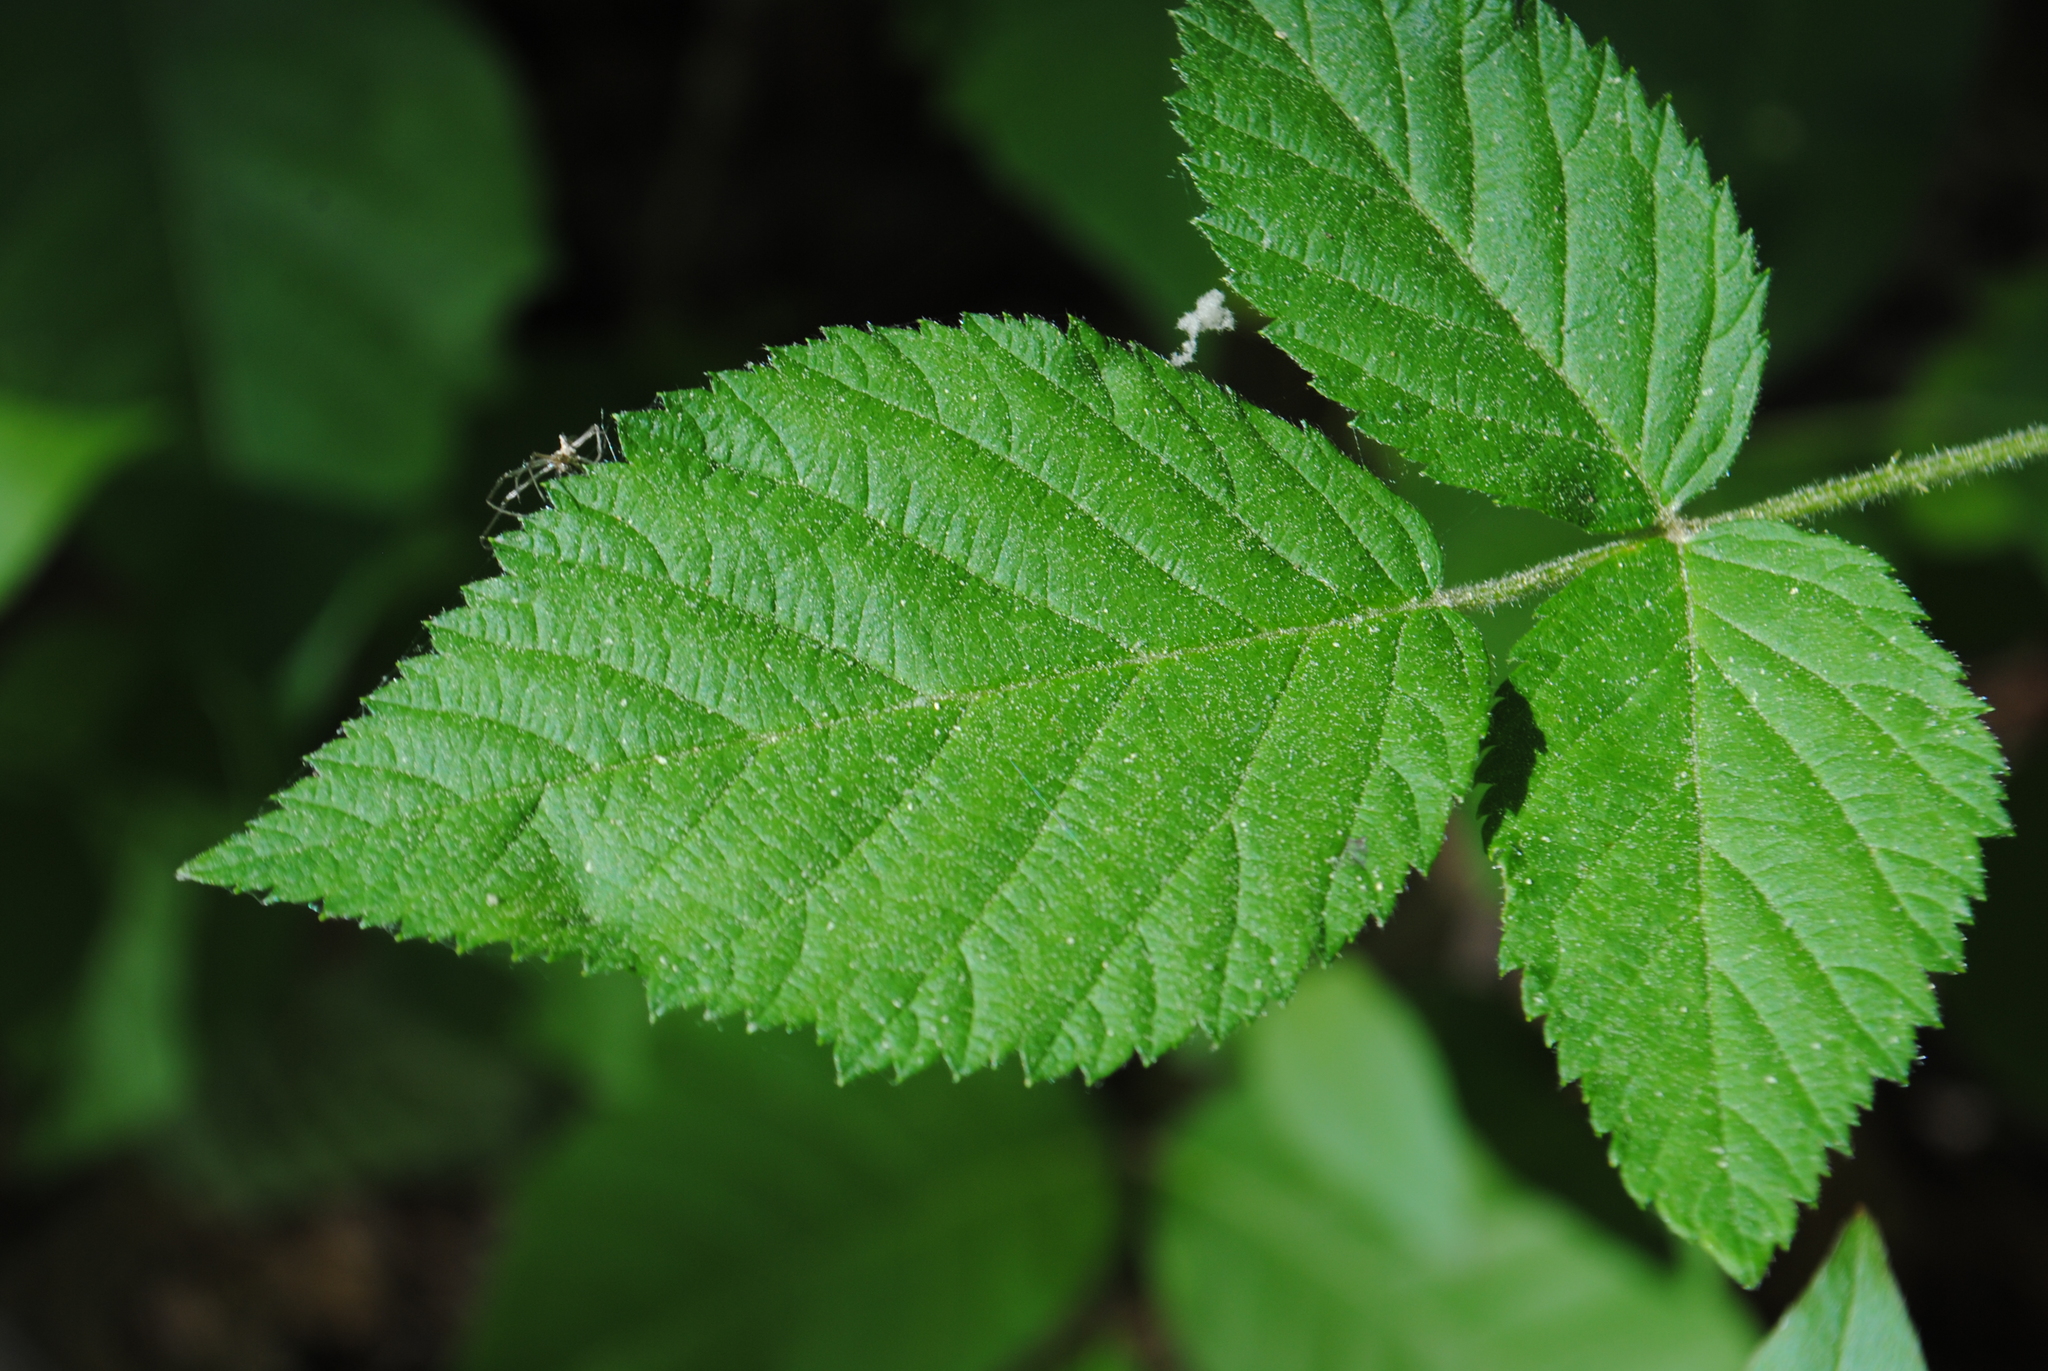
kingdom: Plantae
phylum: Tracheophyta
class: Magnoliopsida
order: Rosales
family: Rosaceae
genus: Rubus
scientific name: Rubus pensilvanicus
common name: Pennsylvania blackberry
